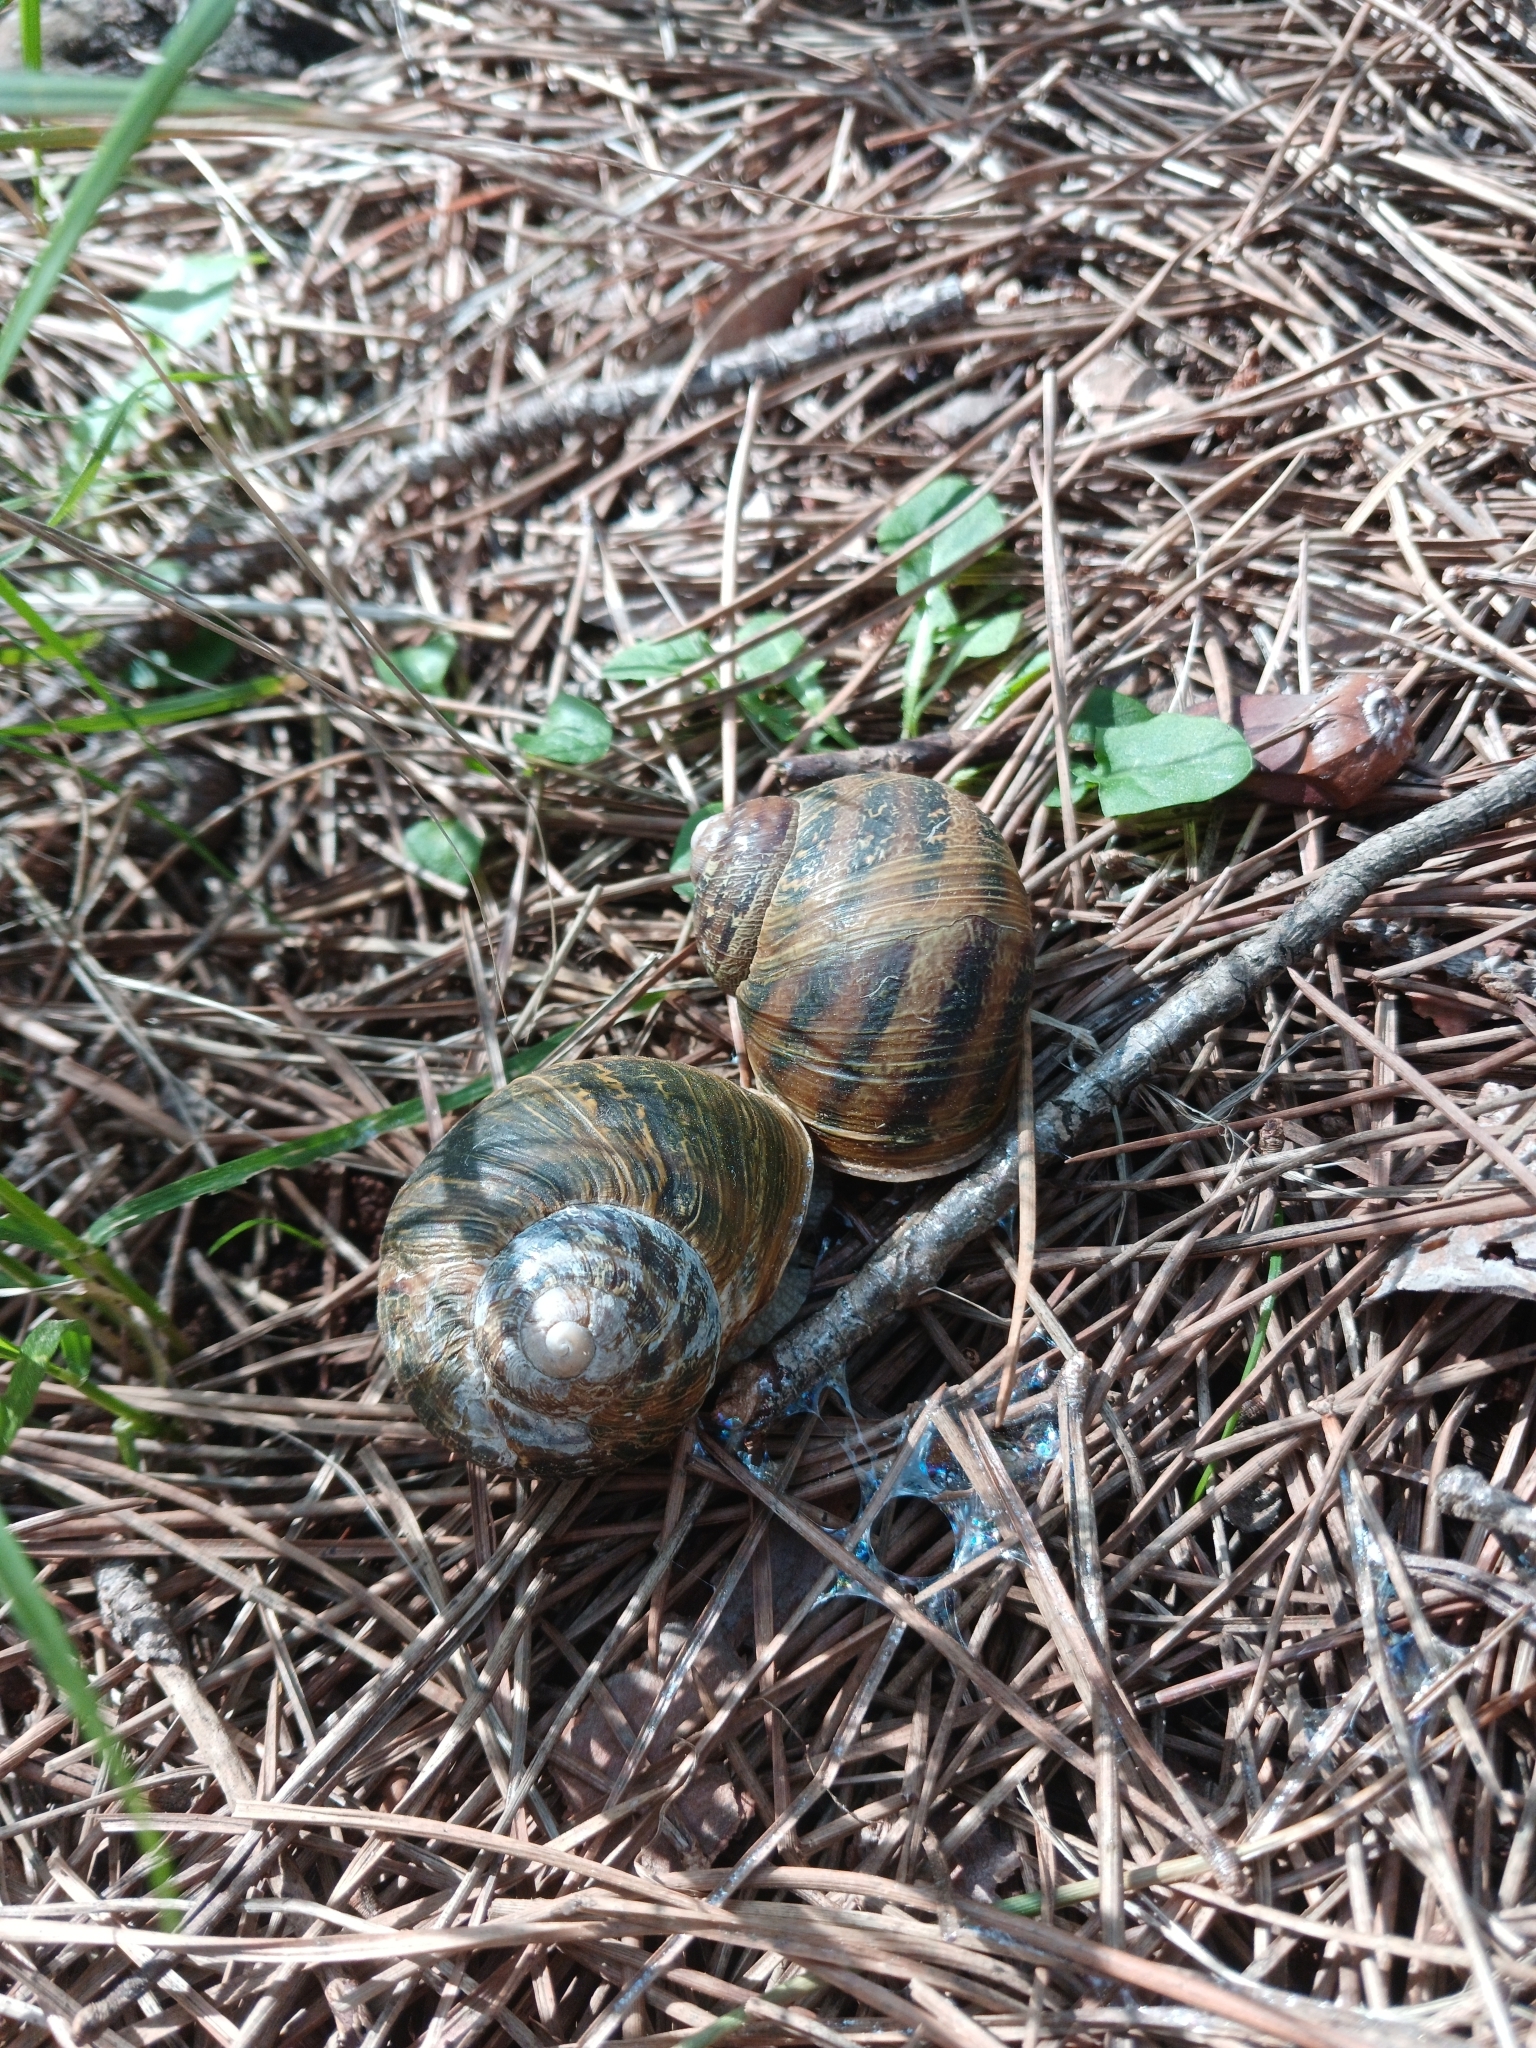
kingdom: Animalia
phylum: Mollusca
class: Gastropoda
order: Stylommatophora
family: Helicidae
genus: Cornu
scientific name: Cornu aspersum
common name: Brown garden snail
